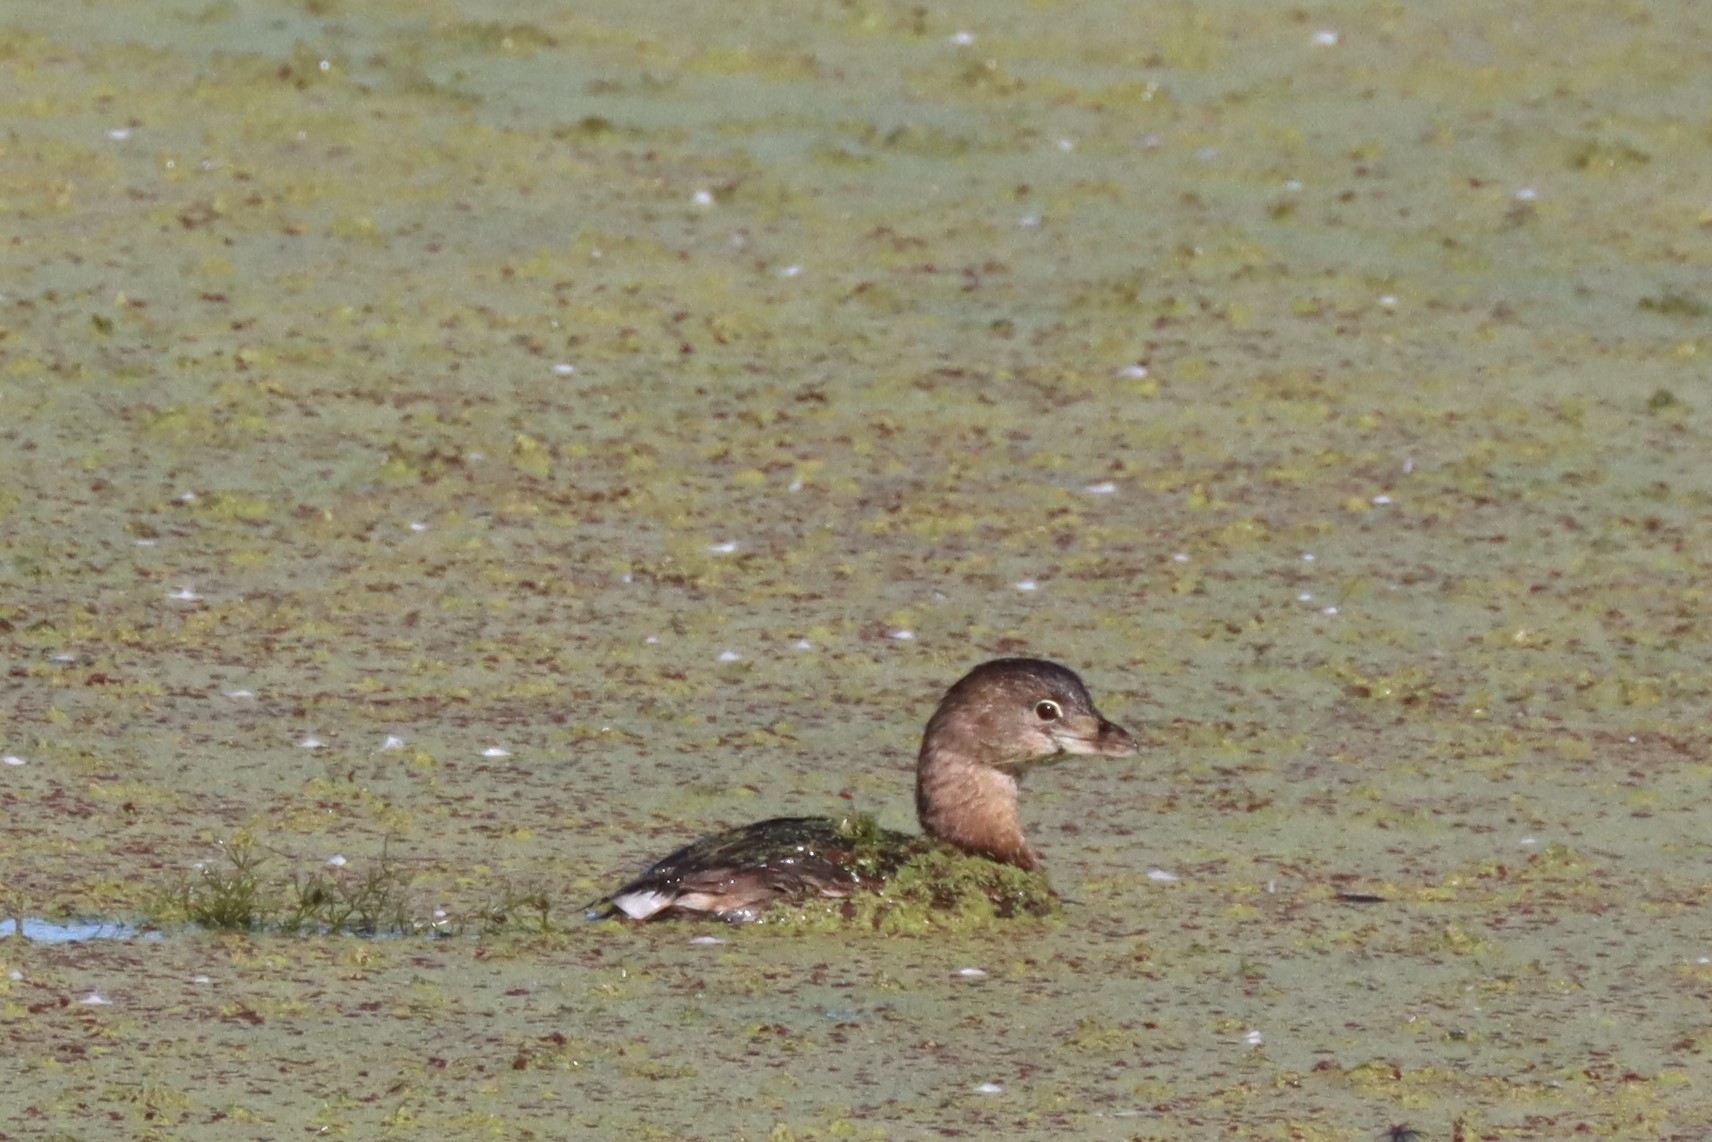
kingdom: Animalia
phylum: Chordata
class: Aves
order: Podicipediformes
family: Podicipedidae
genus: Podilymbus
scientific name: Podilymbus podiceps
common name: Pied-billed grebe
